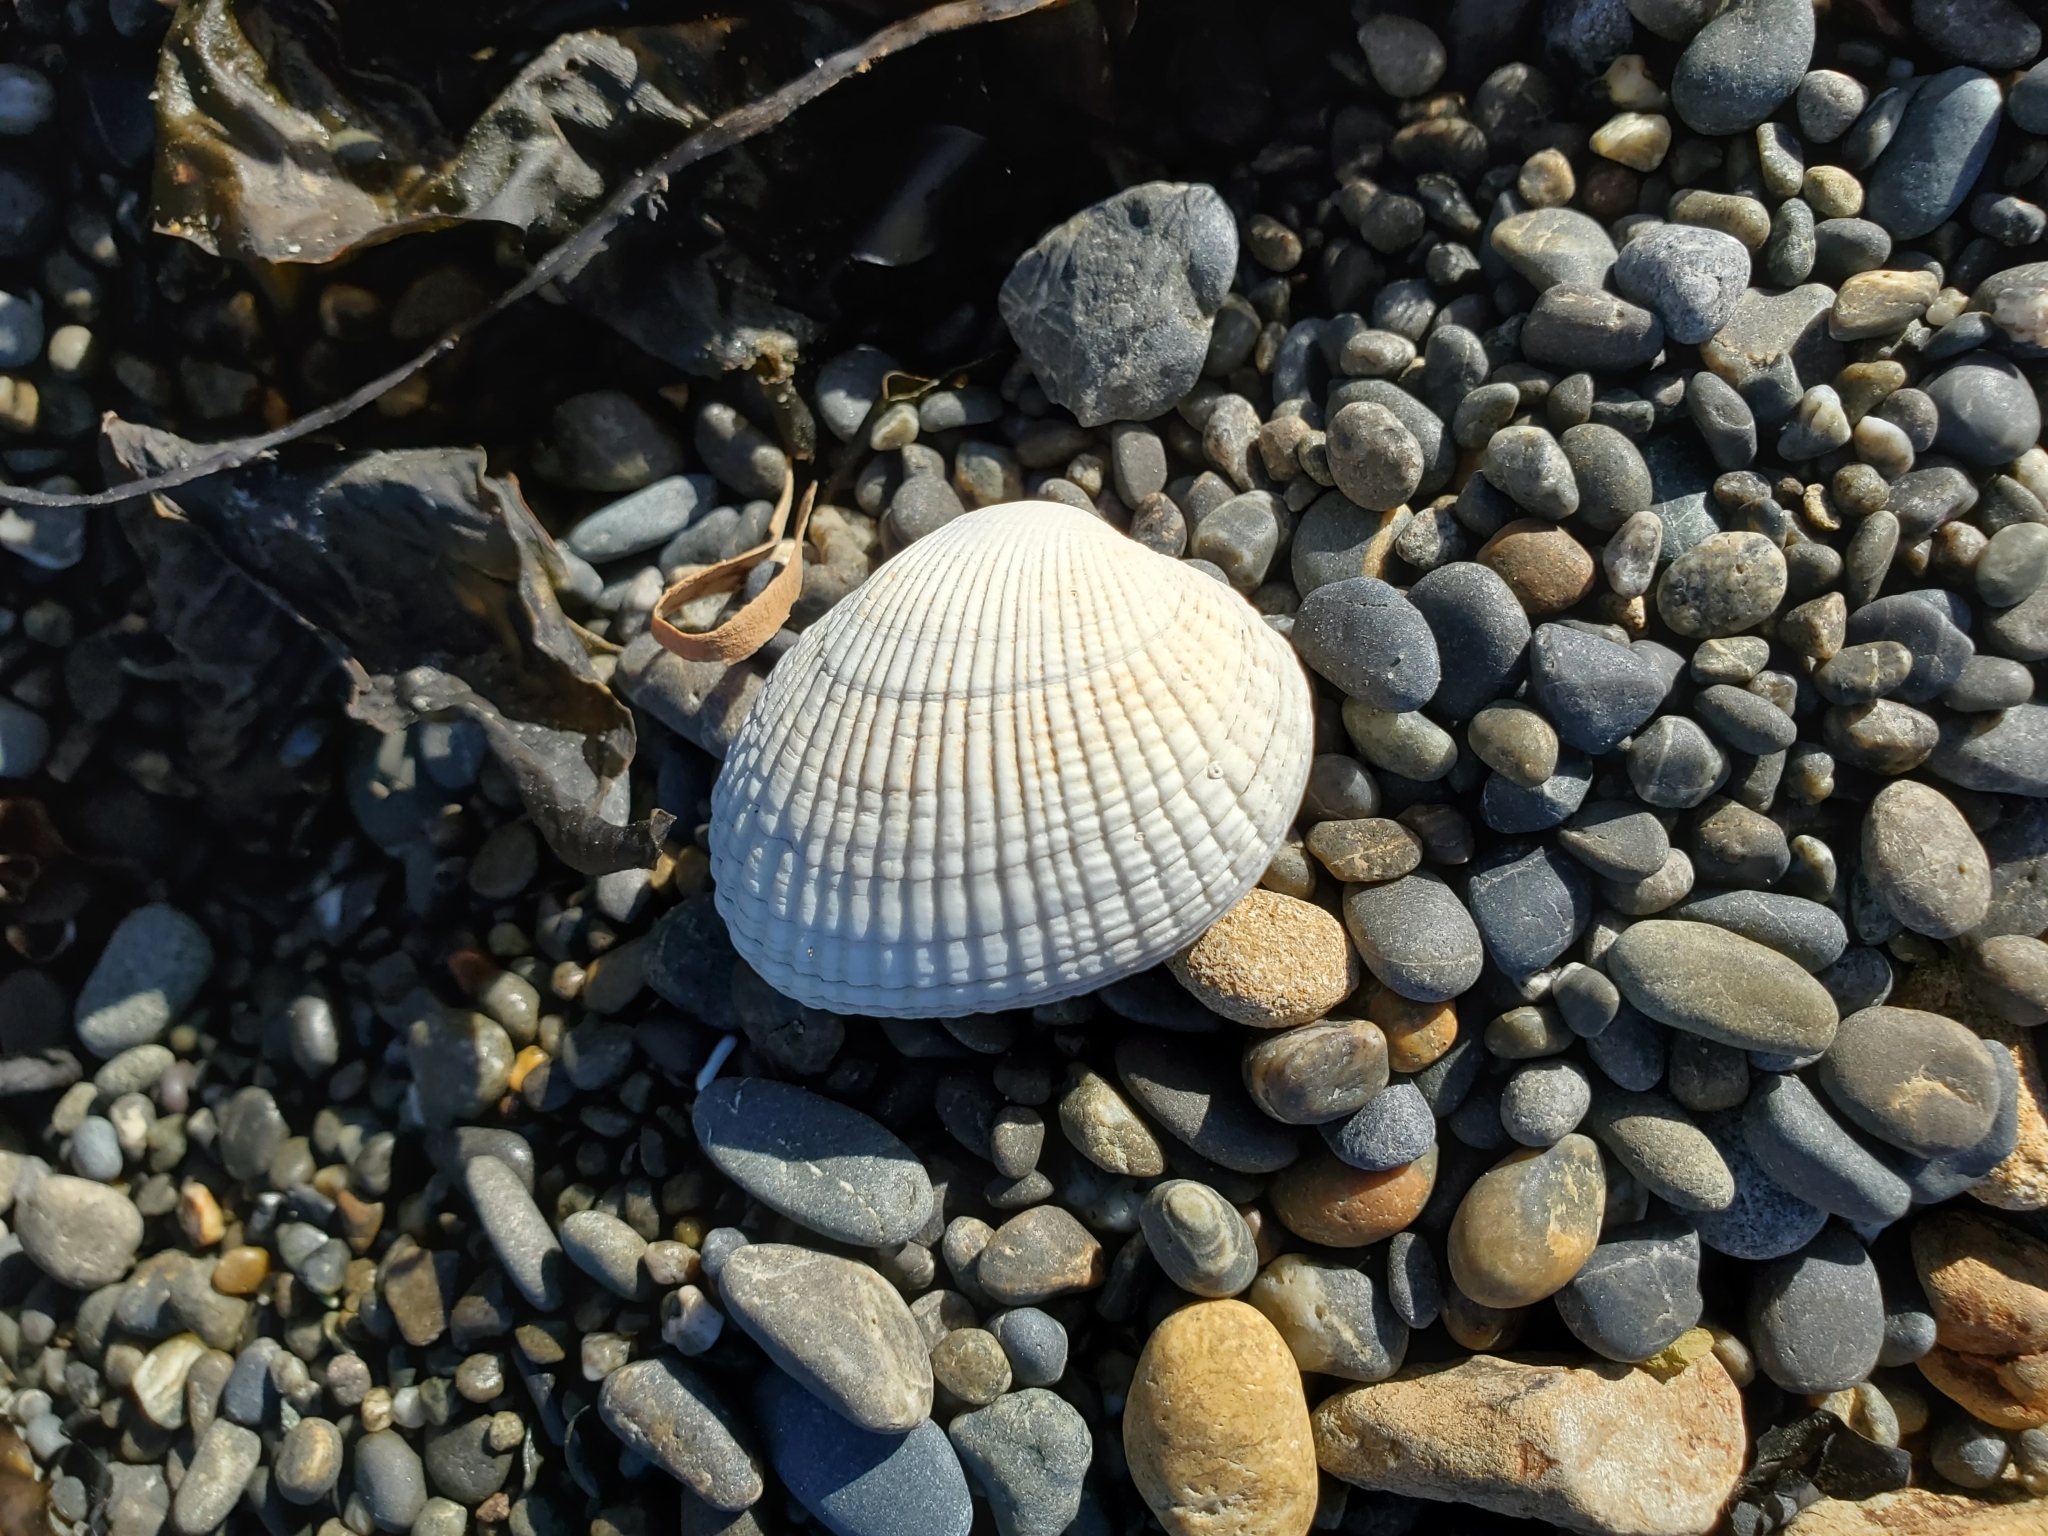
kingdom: Animalia
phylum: Mollusca
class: Bivalvia
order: Venerida
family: Veneridae
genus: Leukoma
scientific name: Leukoma crassicosta
